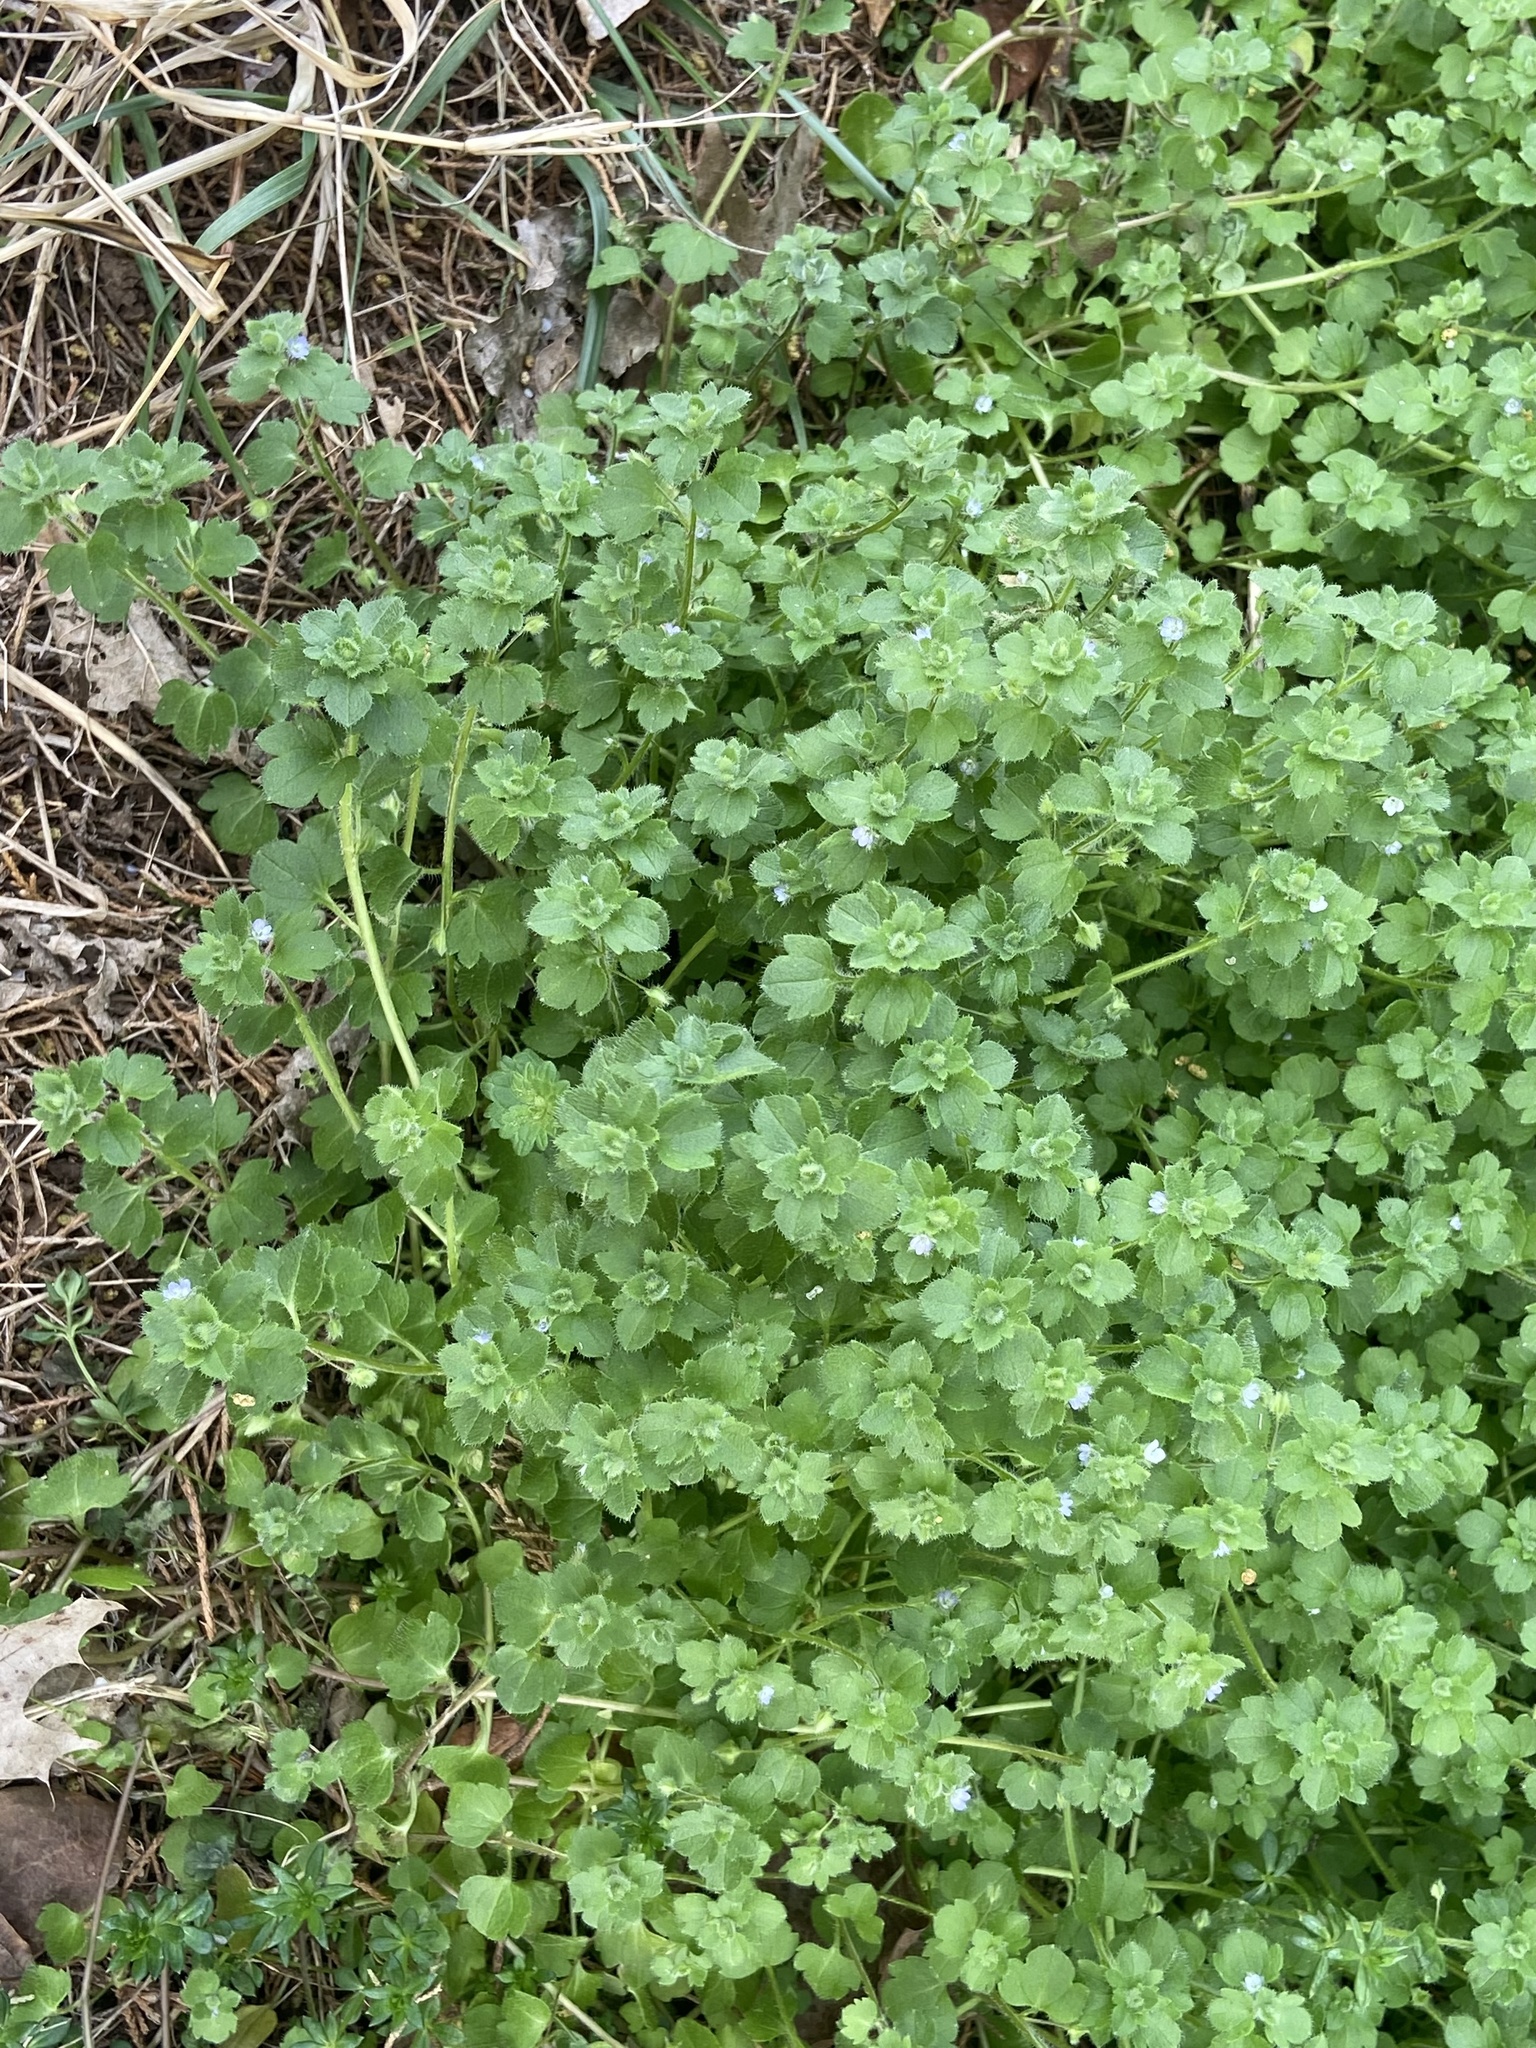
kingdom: Plantae
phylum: Tracheophyta
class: Magnoliopsida
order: Lamiales
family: Plantaginaceae
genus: Veronica
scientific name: Veronica hederifolia
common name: Ivy-leaved speedwell
